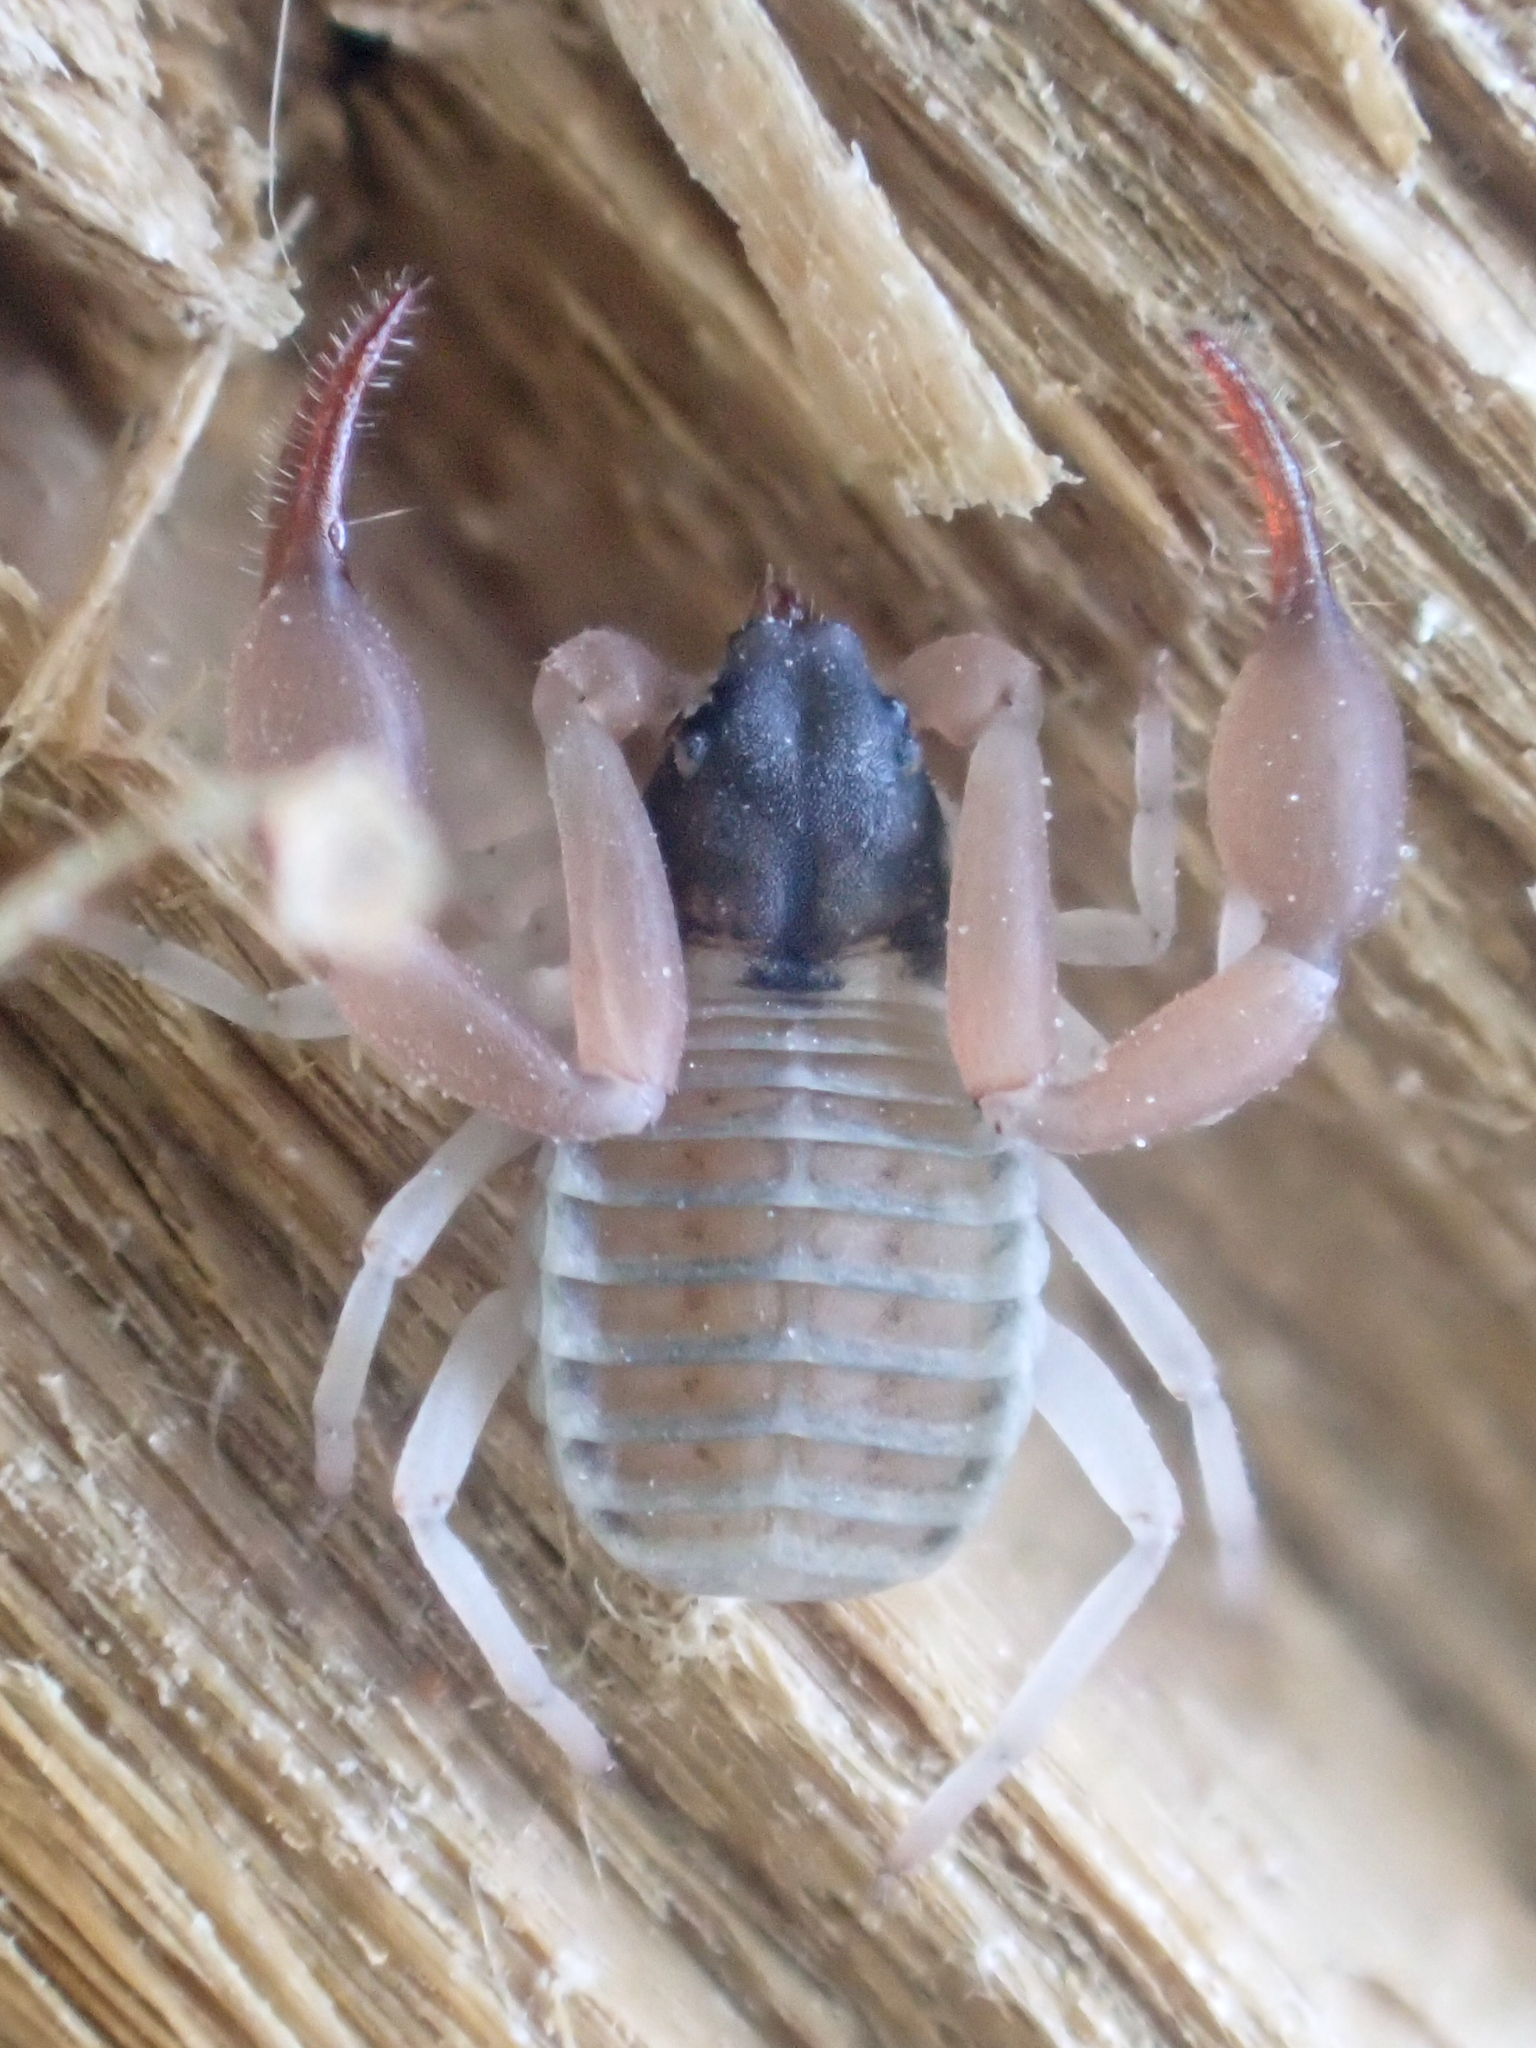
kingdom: Animalia
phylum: Arthropoda
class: Arachnida
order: Pseudoscorpiones
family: Garypidae
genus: Anchigarypus
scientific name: Anchigarypus californicus
